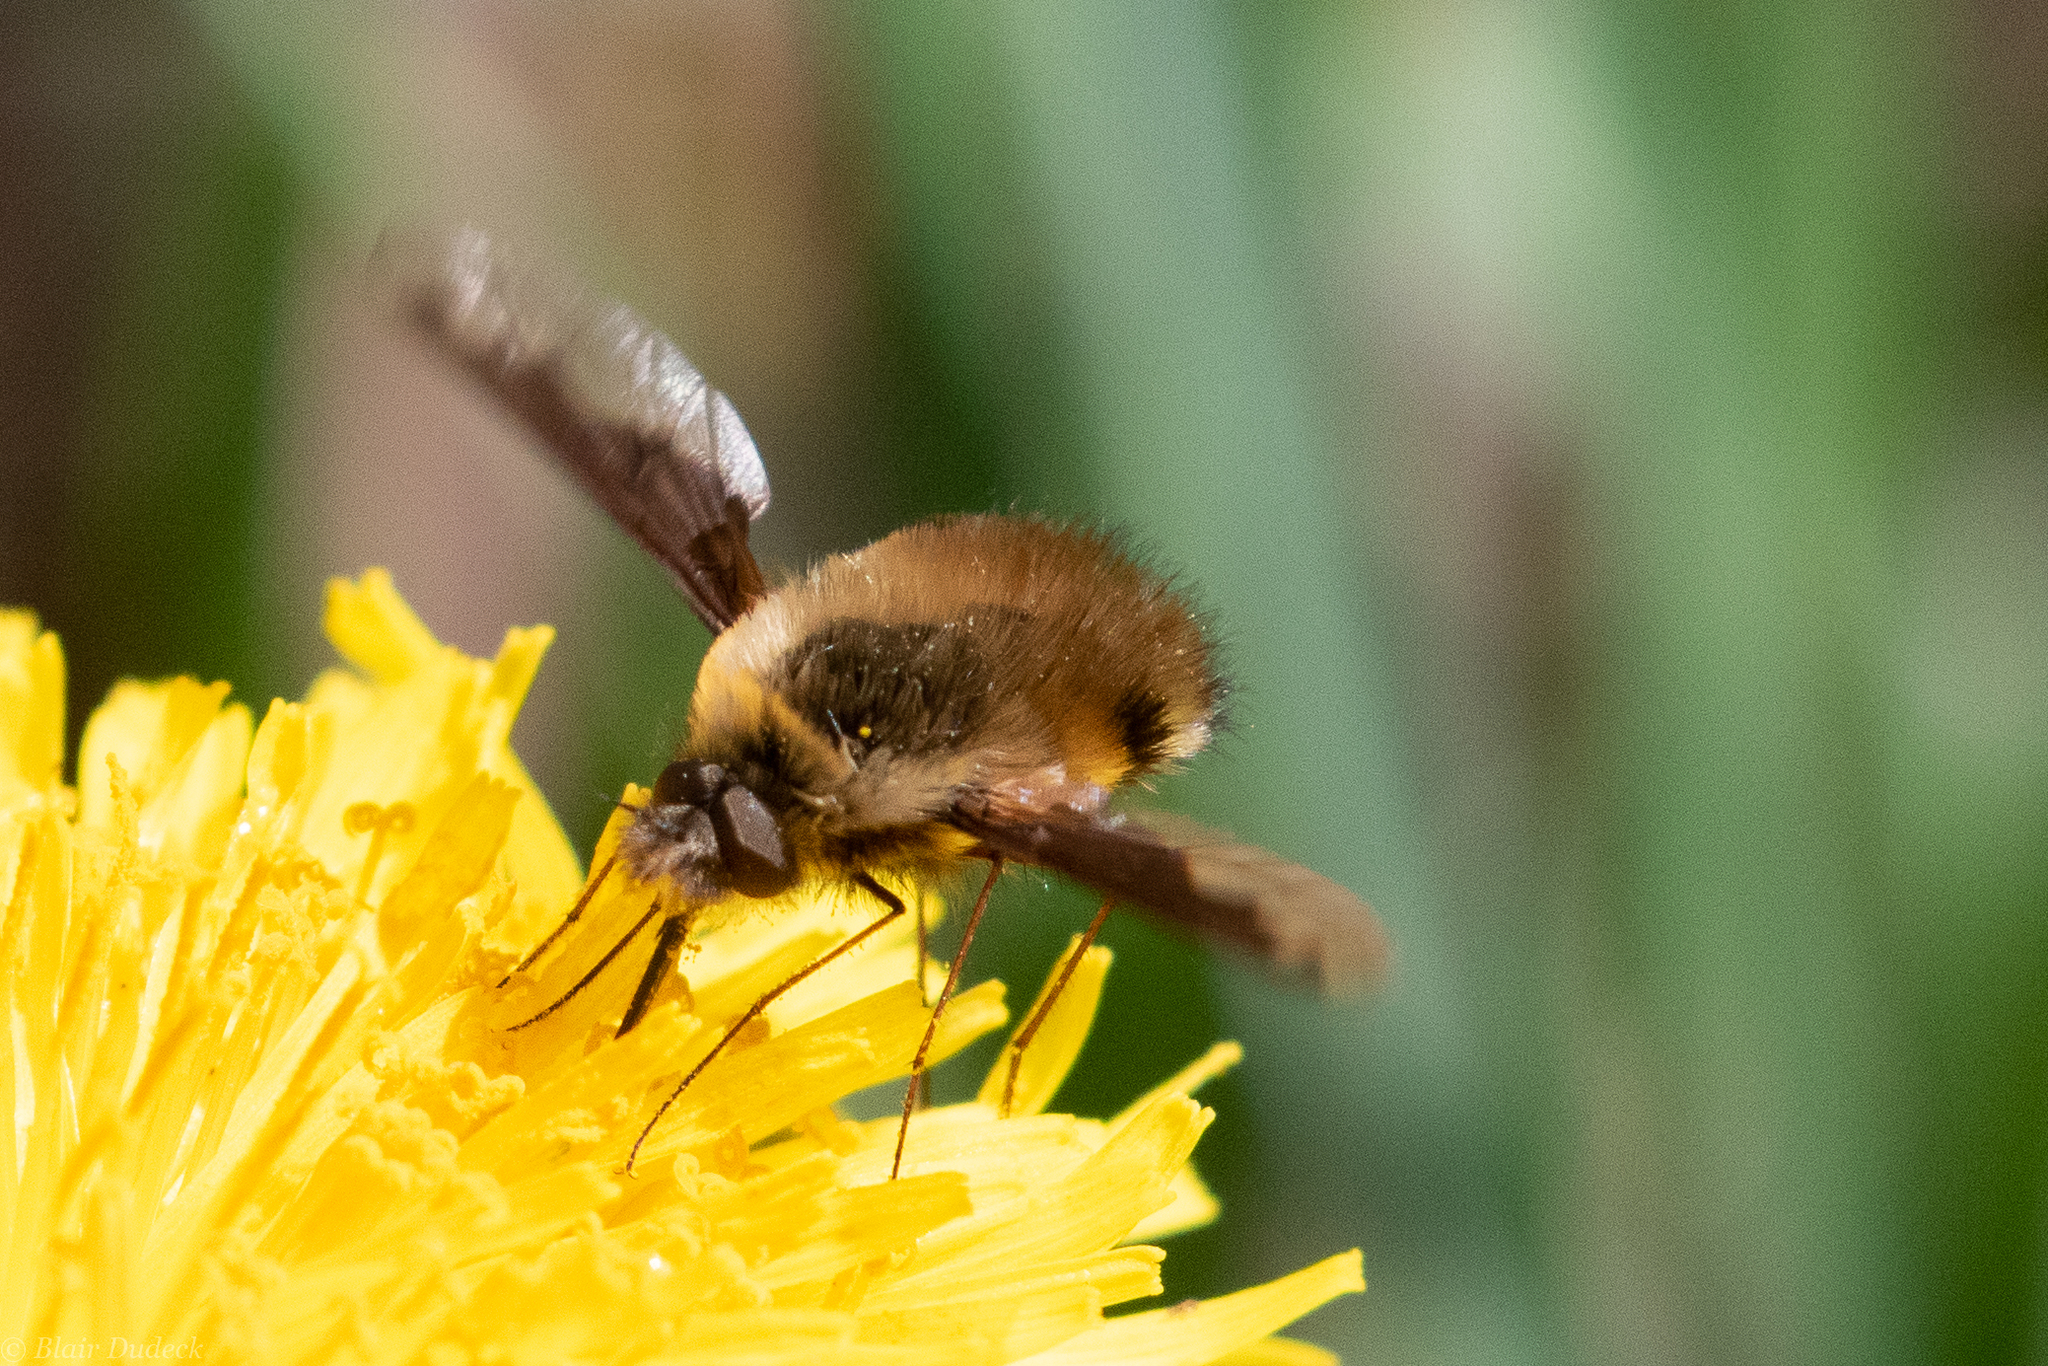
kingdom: Animalia
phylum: Arthropoda
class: Insecta
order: Diptera
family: Bombyliidae
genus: Bombylius
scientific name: Bombylius major
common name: Bee fly
